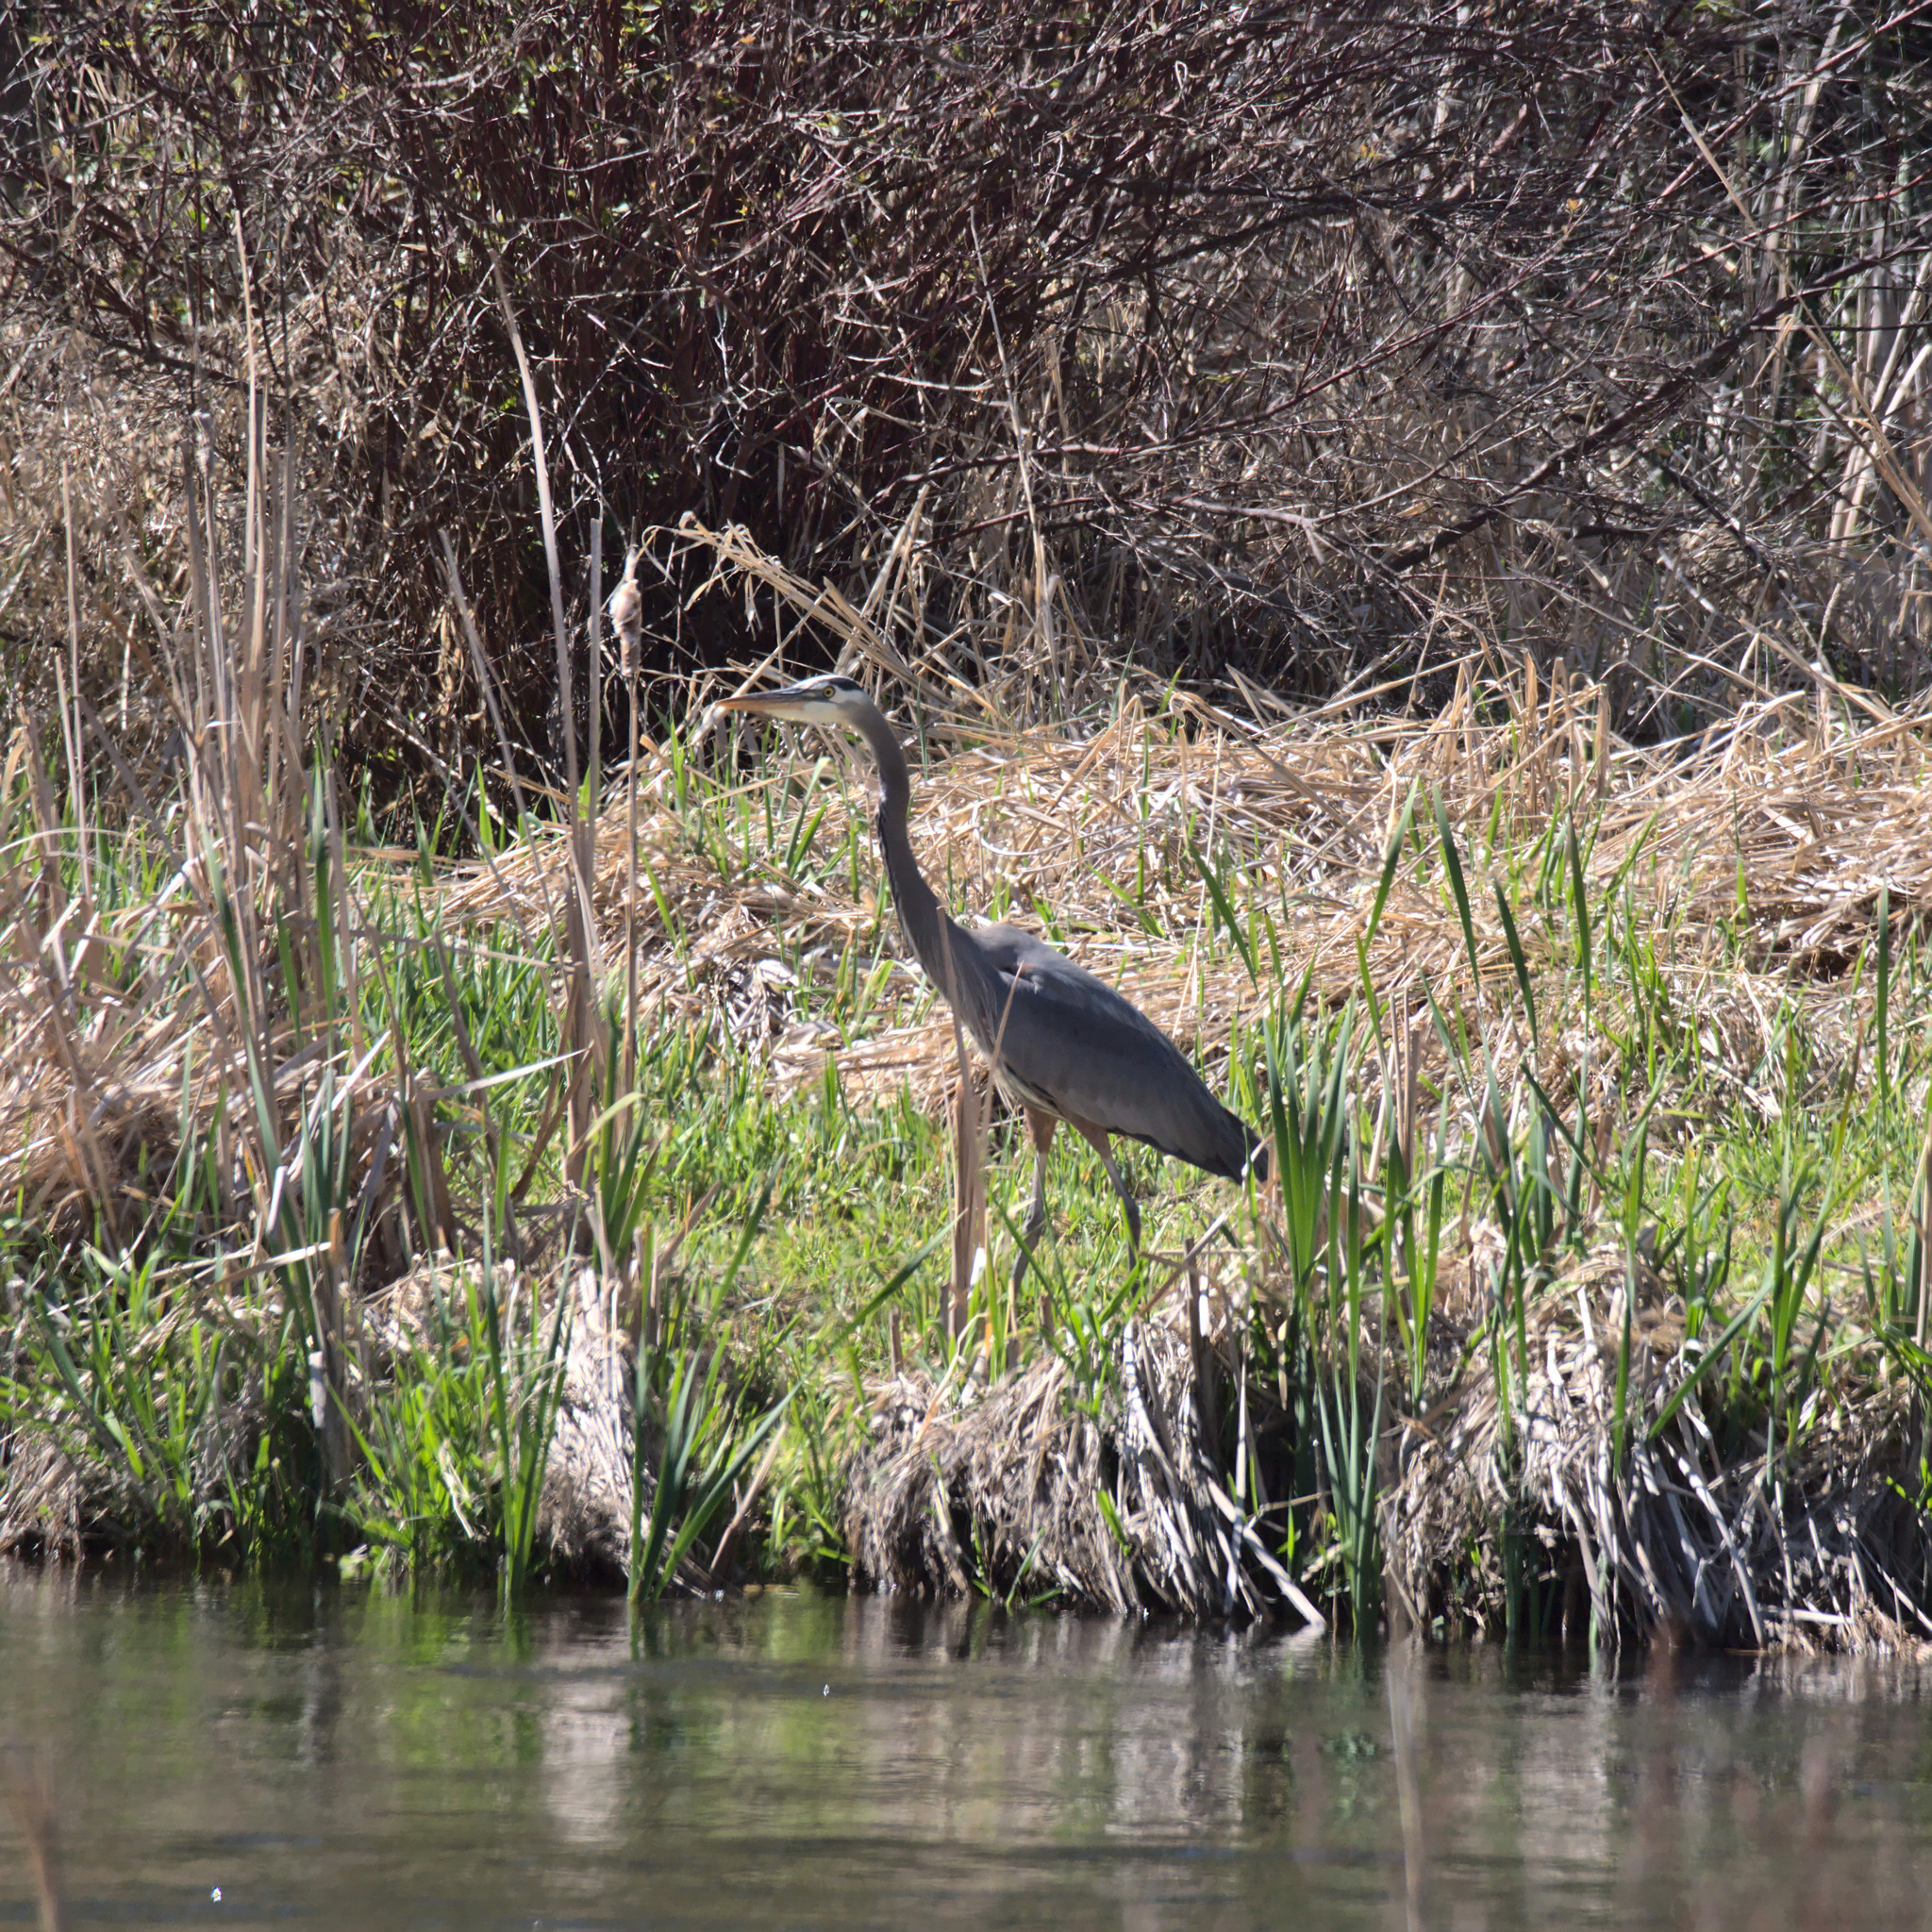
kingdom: Animalia
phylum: Chordata
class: Aves
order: Pelecaniformes
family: Ardeidae
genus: Ardea
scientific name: Ardea herodias
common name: Great blue heron
